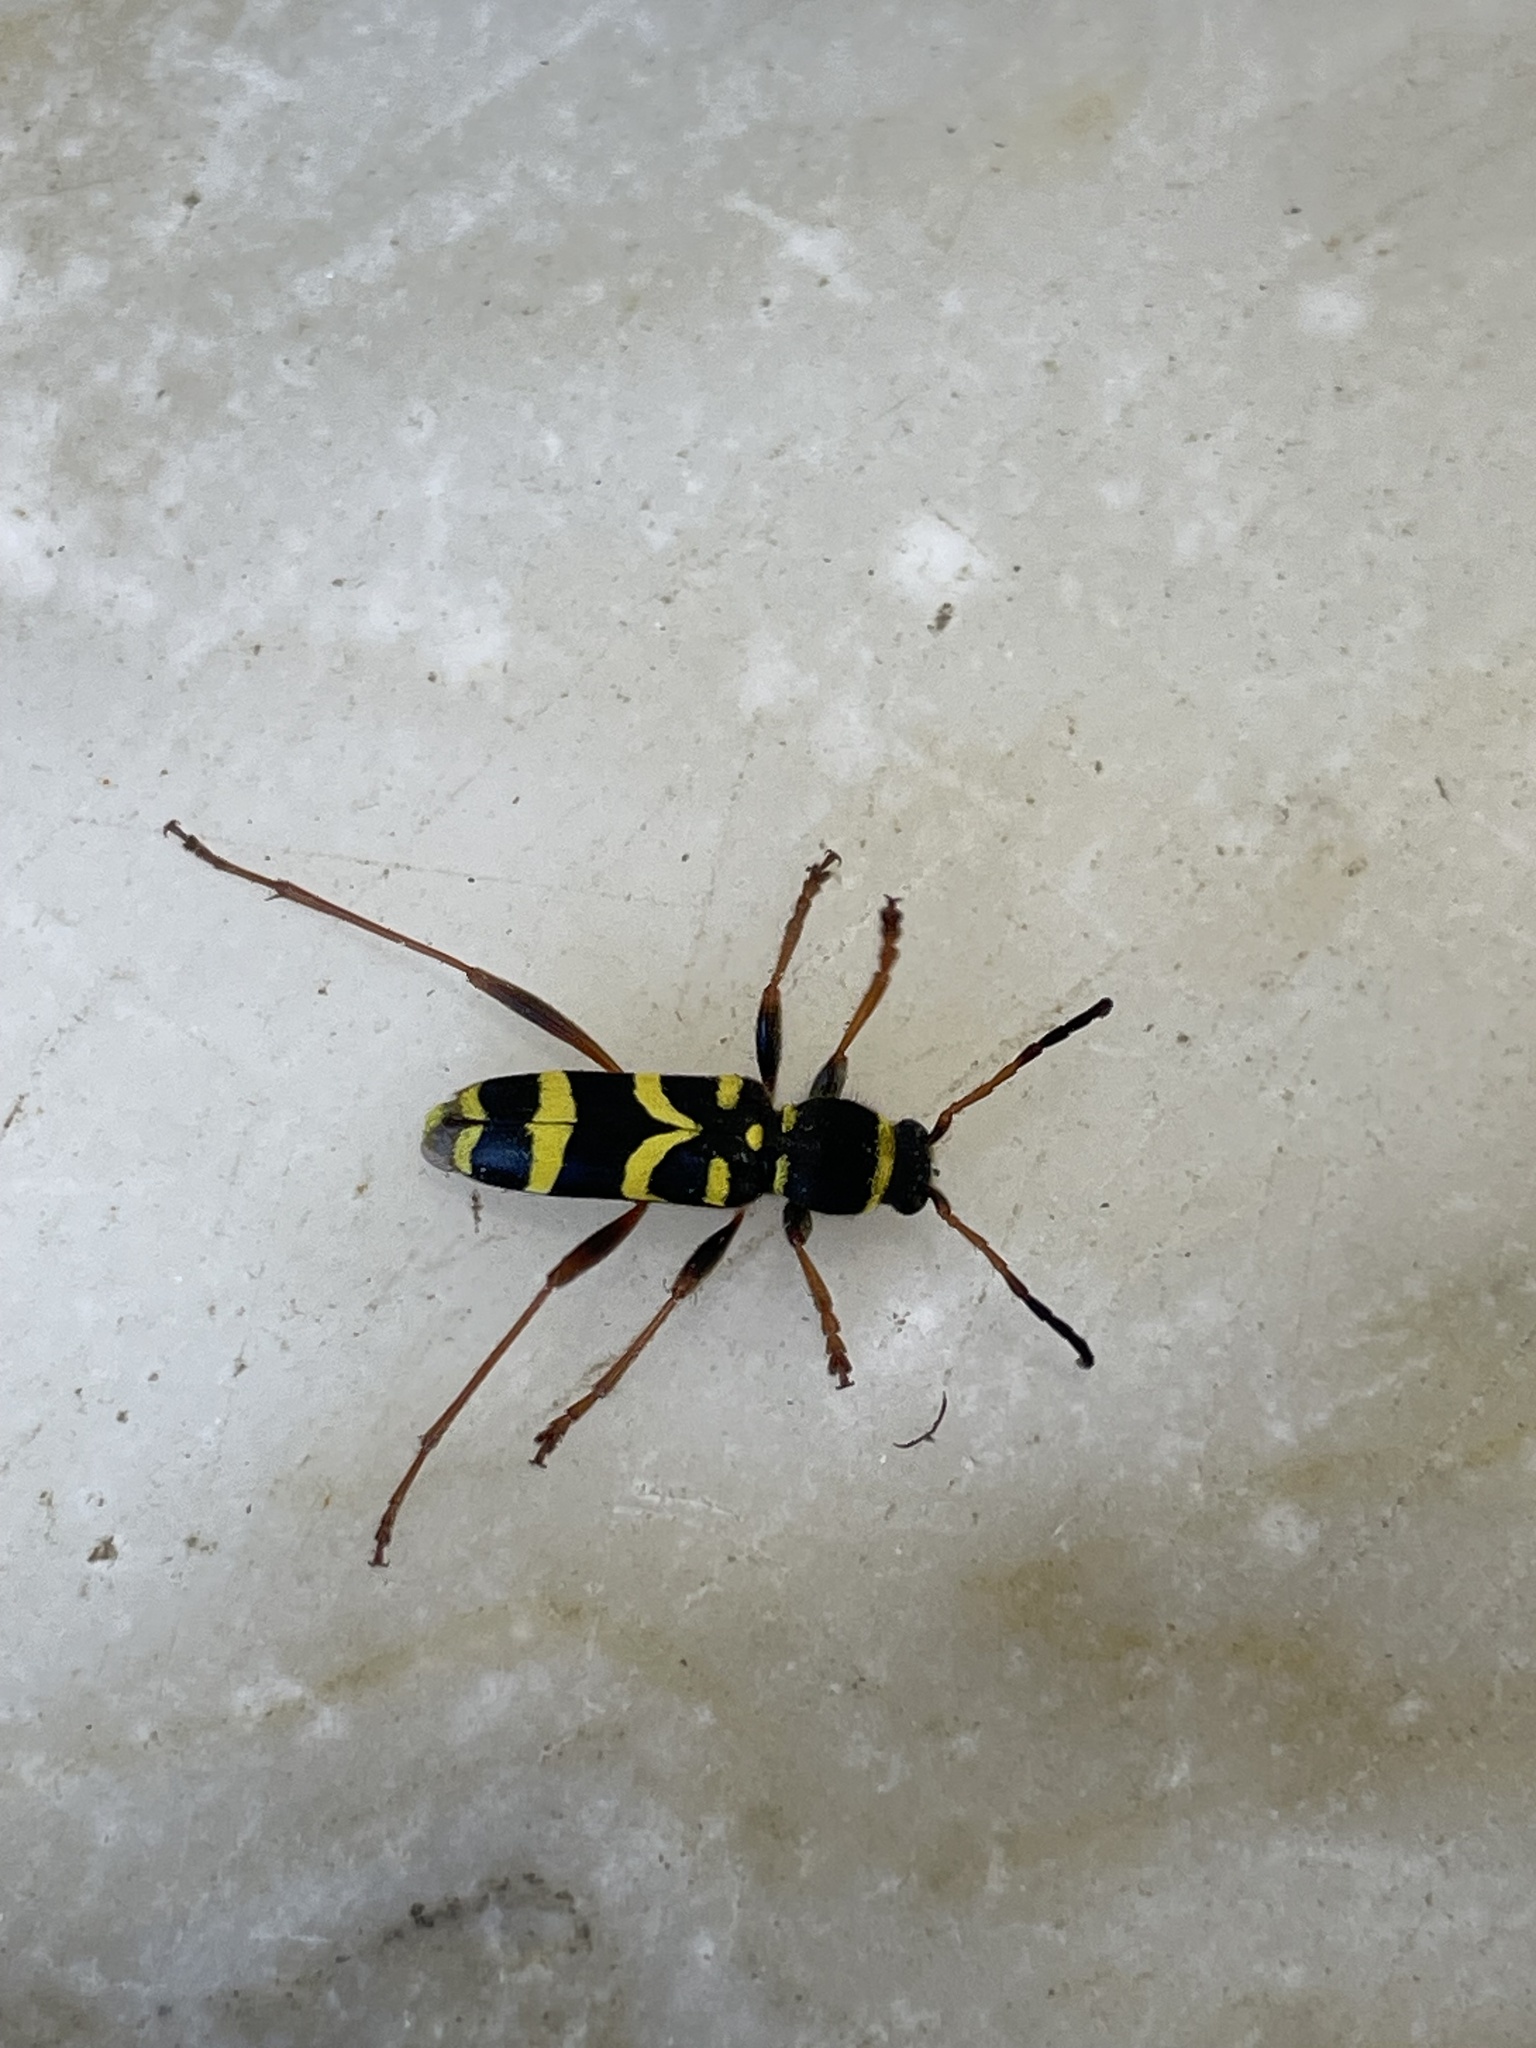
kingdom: Animalia
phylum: Arthropoda
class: Insecta
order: Coleoptera
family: Cerambycidae
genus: Clytus
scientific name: Clytus arietis
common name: Wasp beetle
